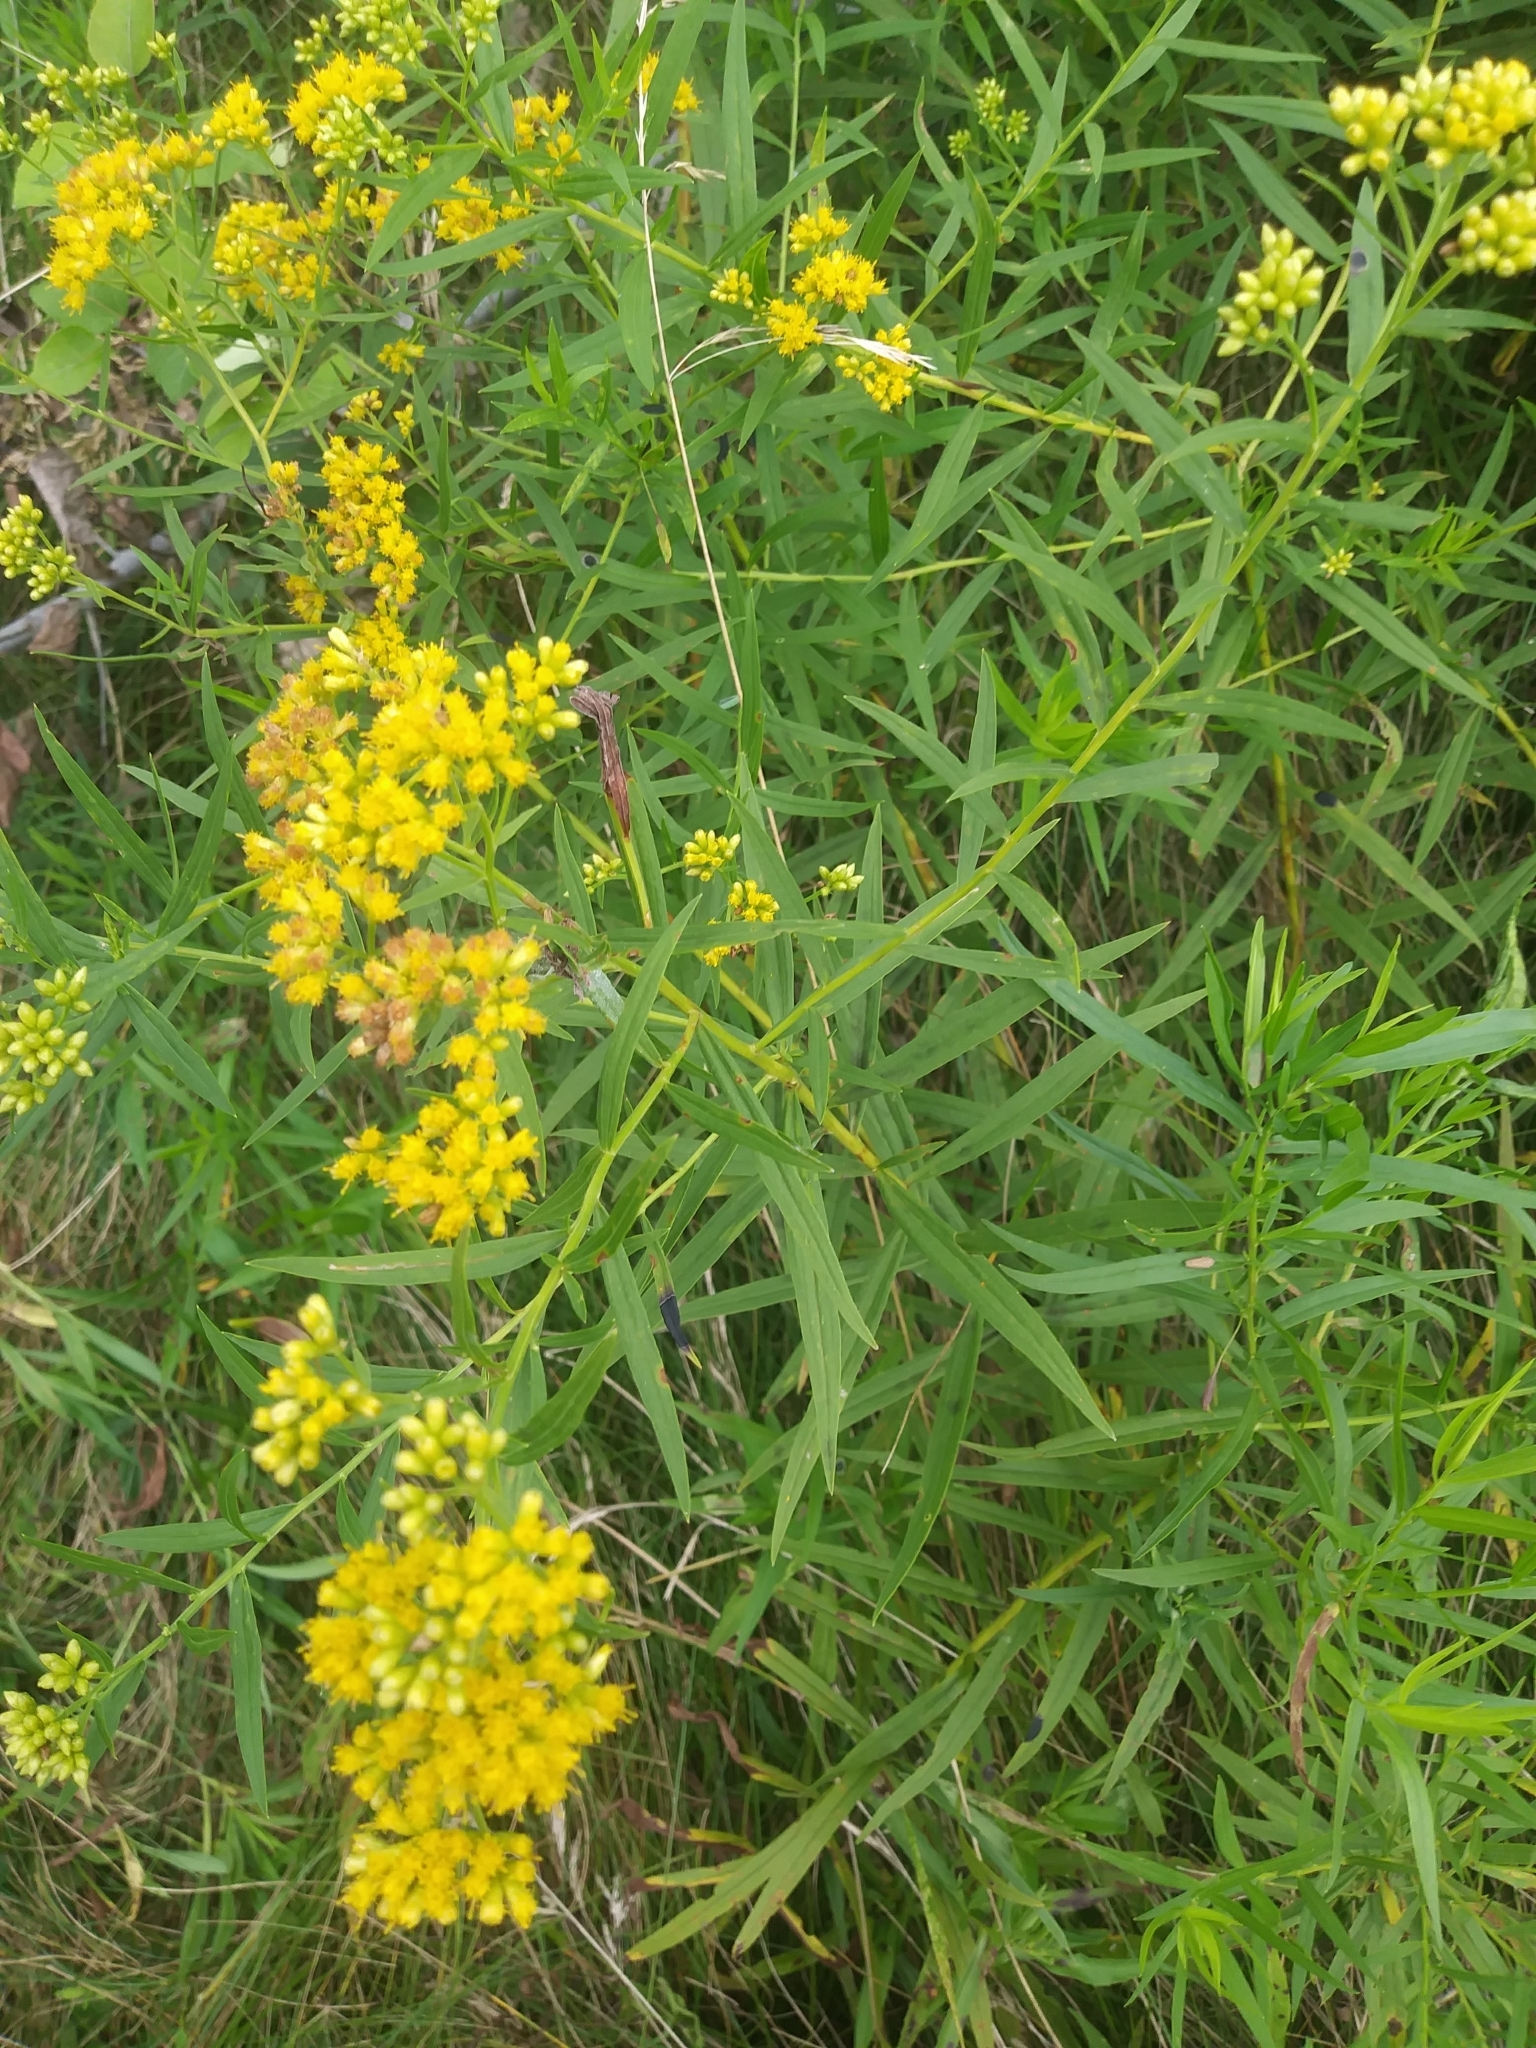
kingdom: Plantae
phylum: Tracheophyta
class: Magnoliopsida
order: Asterales
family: Asteraceae
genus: Euthamia
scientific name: Euthamia graminifolia
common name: Common goldentop
